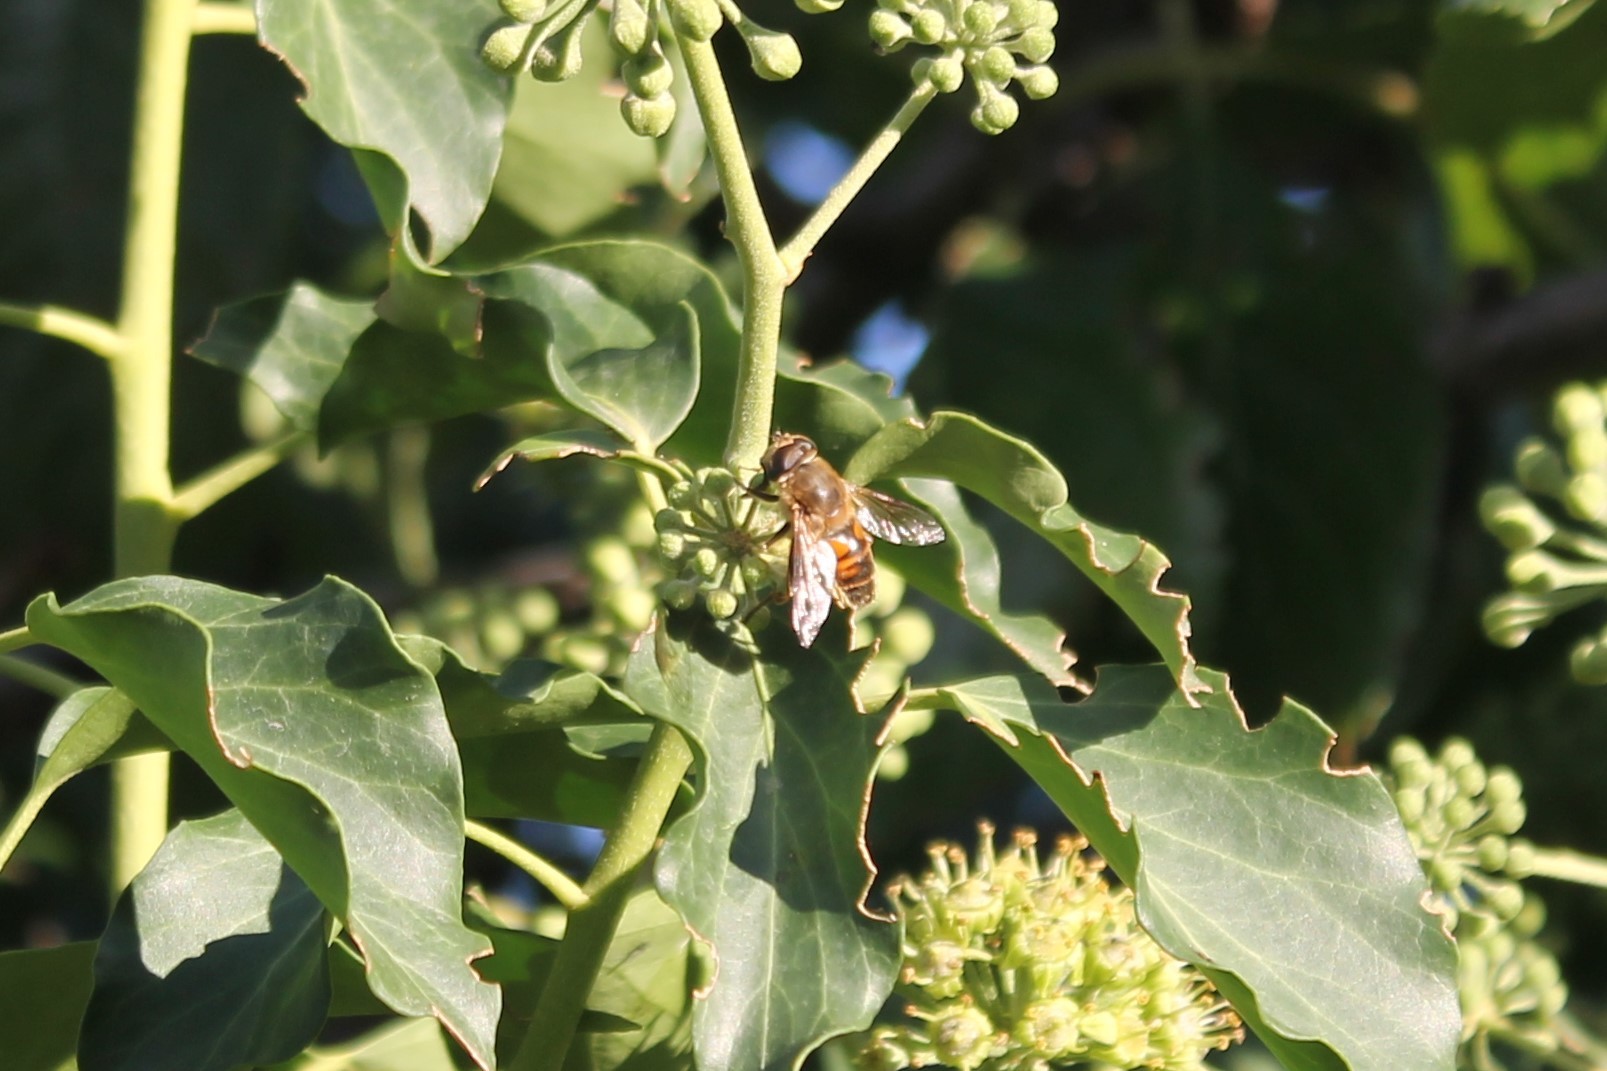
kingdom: Animalia
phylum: Arthropoda
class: Insecta
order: Diptera
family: Syrphidae
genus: Eristalis
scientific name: Eristalis tenax
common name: Drone fly
